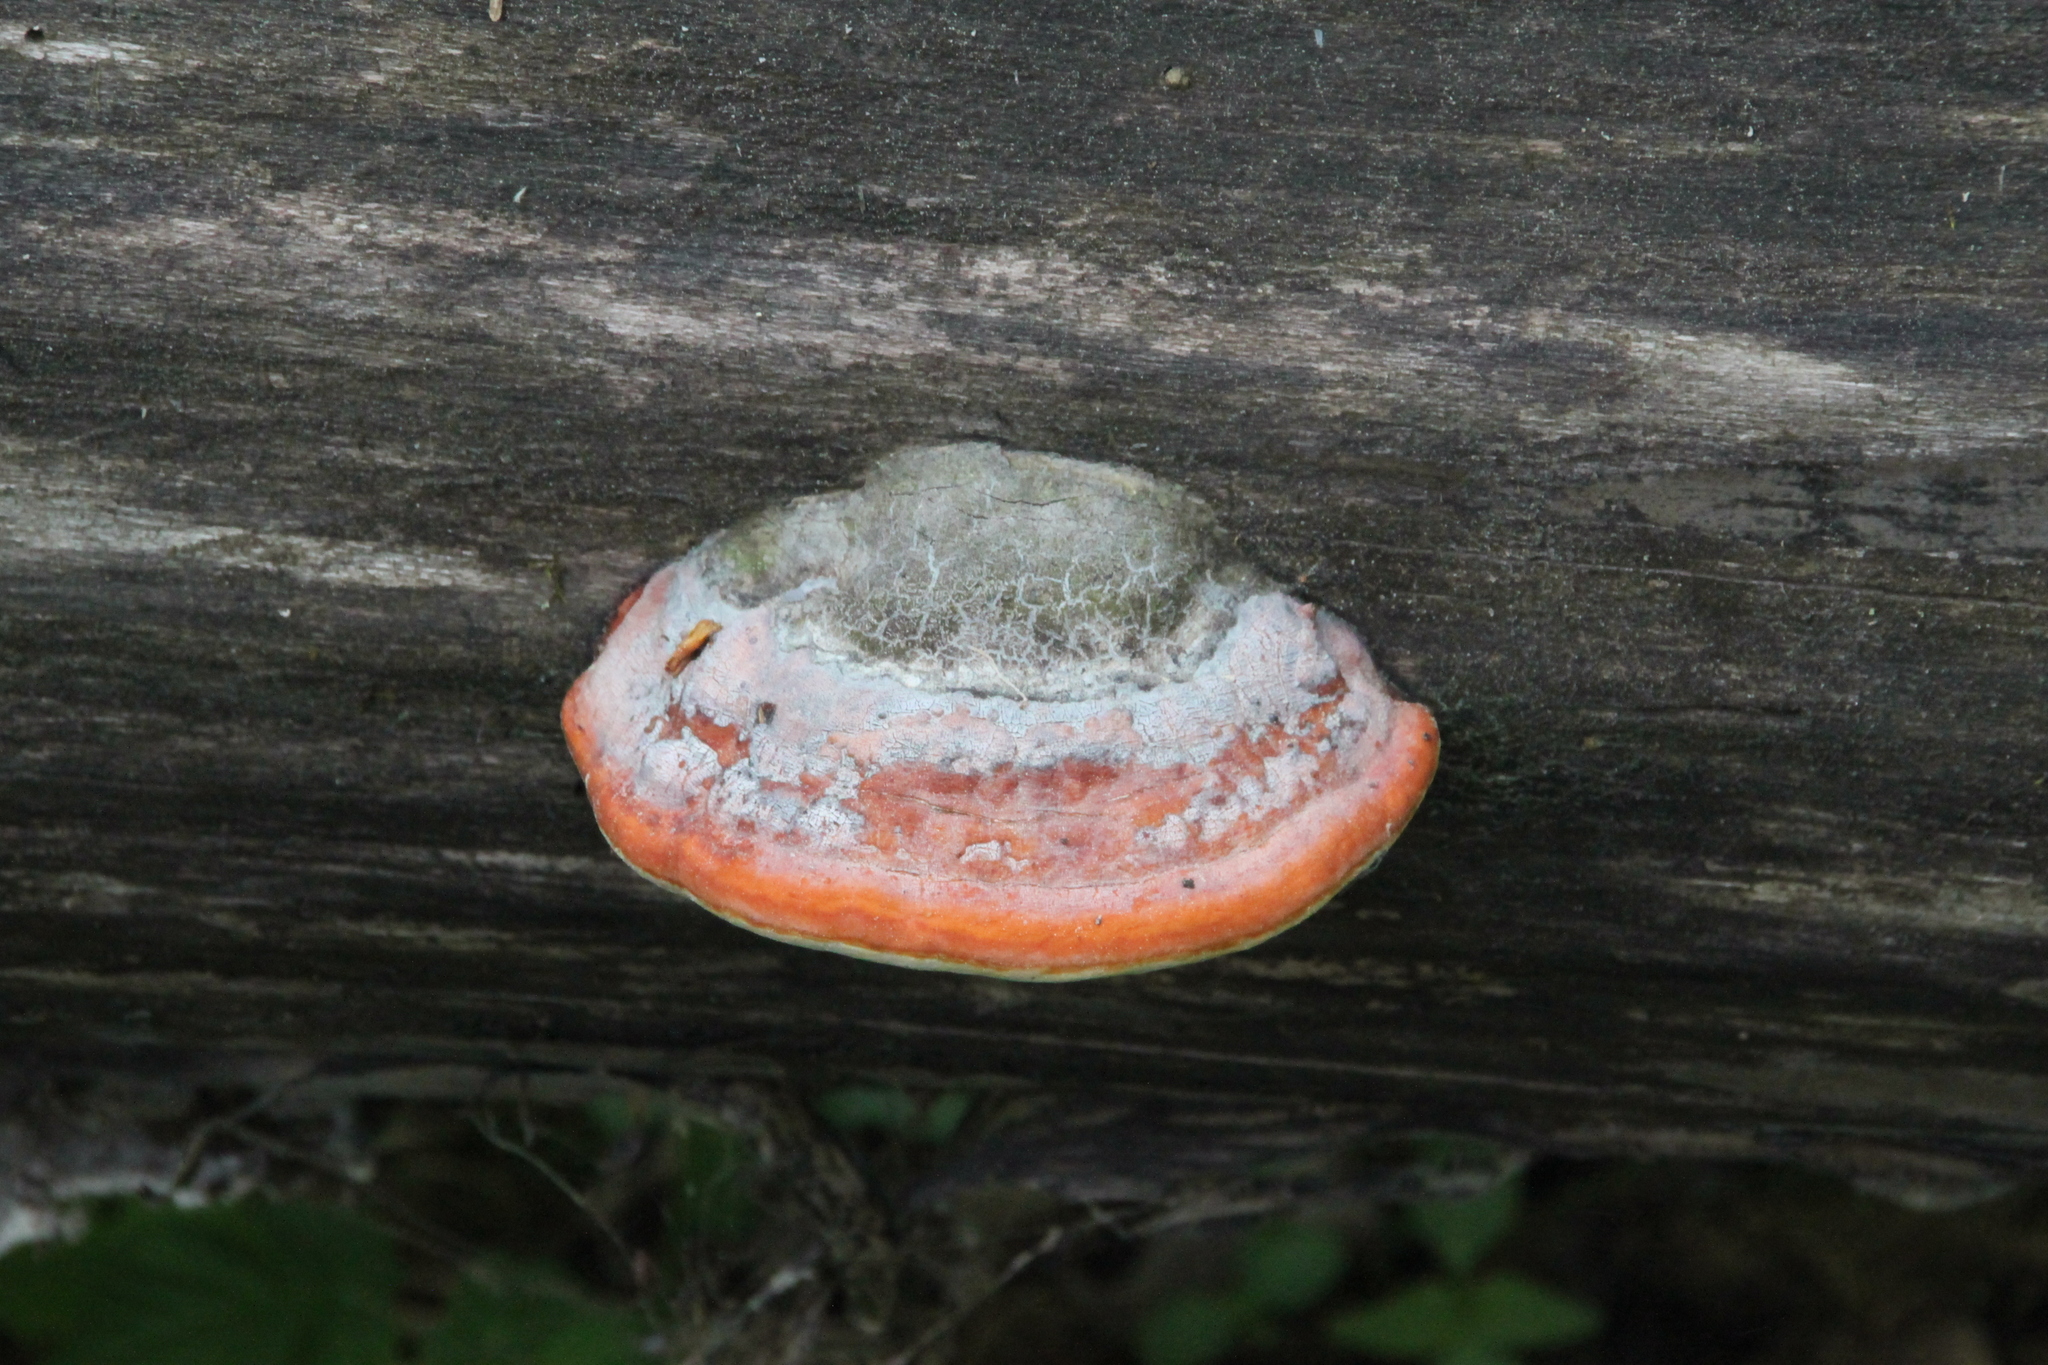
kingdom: Fungi
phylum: Basidiomycota
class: Agaricomycetes
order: Polyporales
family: Fomitopsidaceae
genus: Fomitopsis
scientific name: Fomitopsis pinicola
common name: Red-belted bracket
